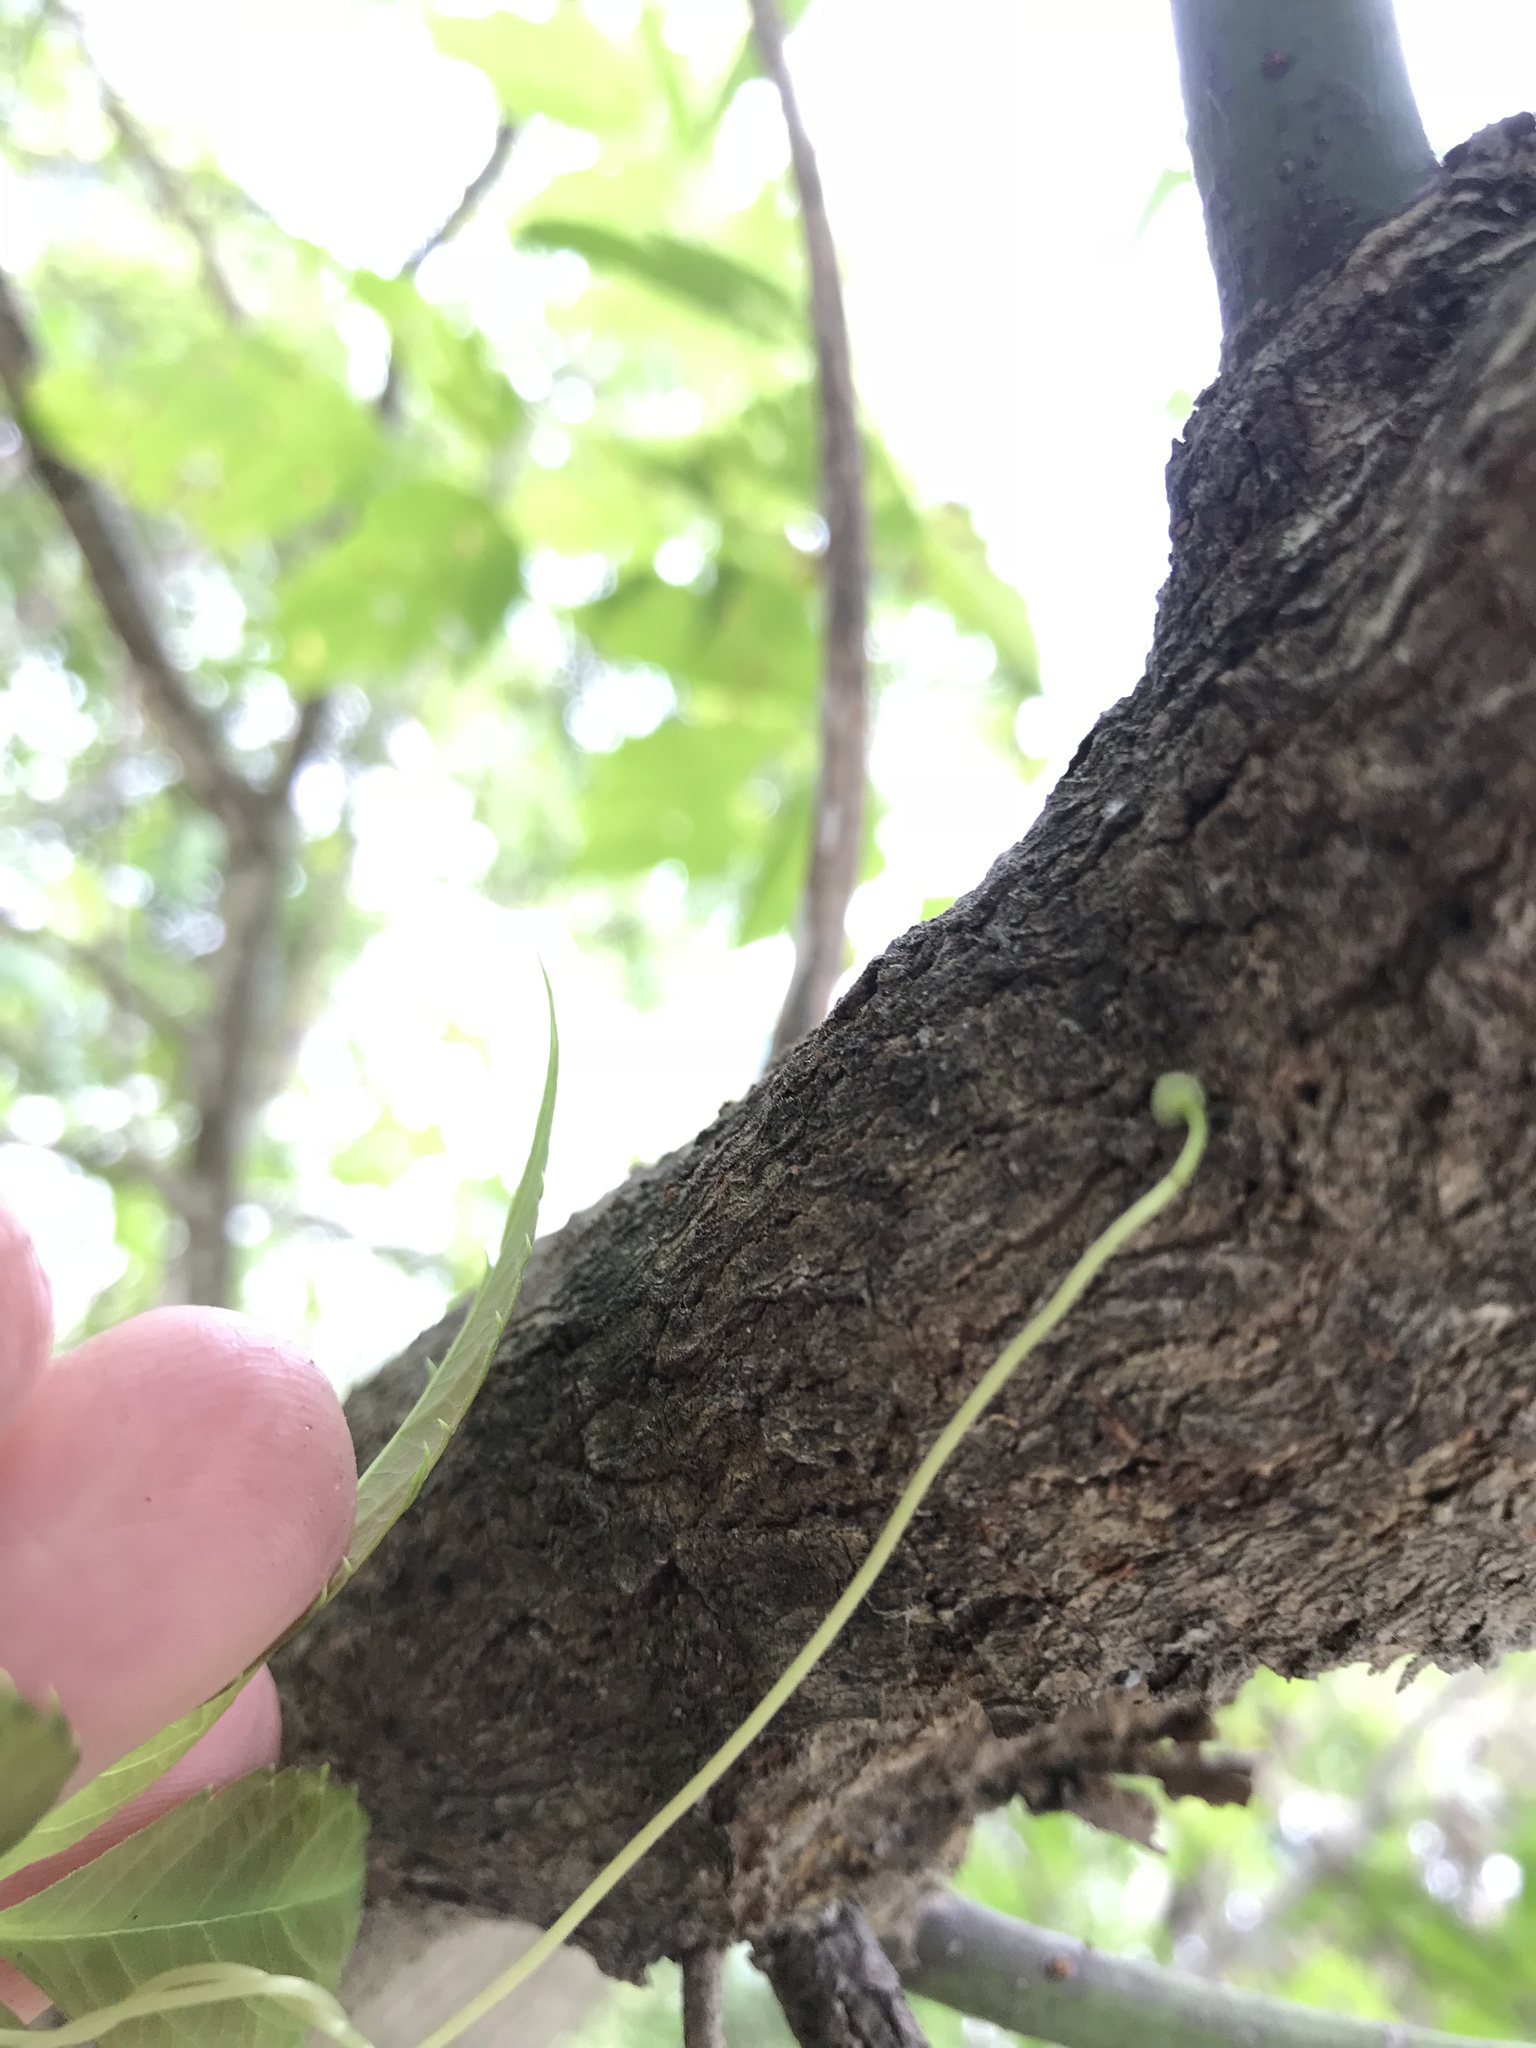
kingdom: Plantae
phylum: Tracheophyta
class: Magnoliopsida
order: Vitales
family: Vitaceae
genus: Parthenocissus
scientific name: Parthenocissus inserta
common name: False virginia-creeper
